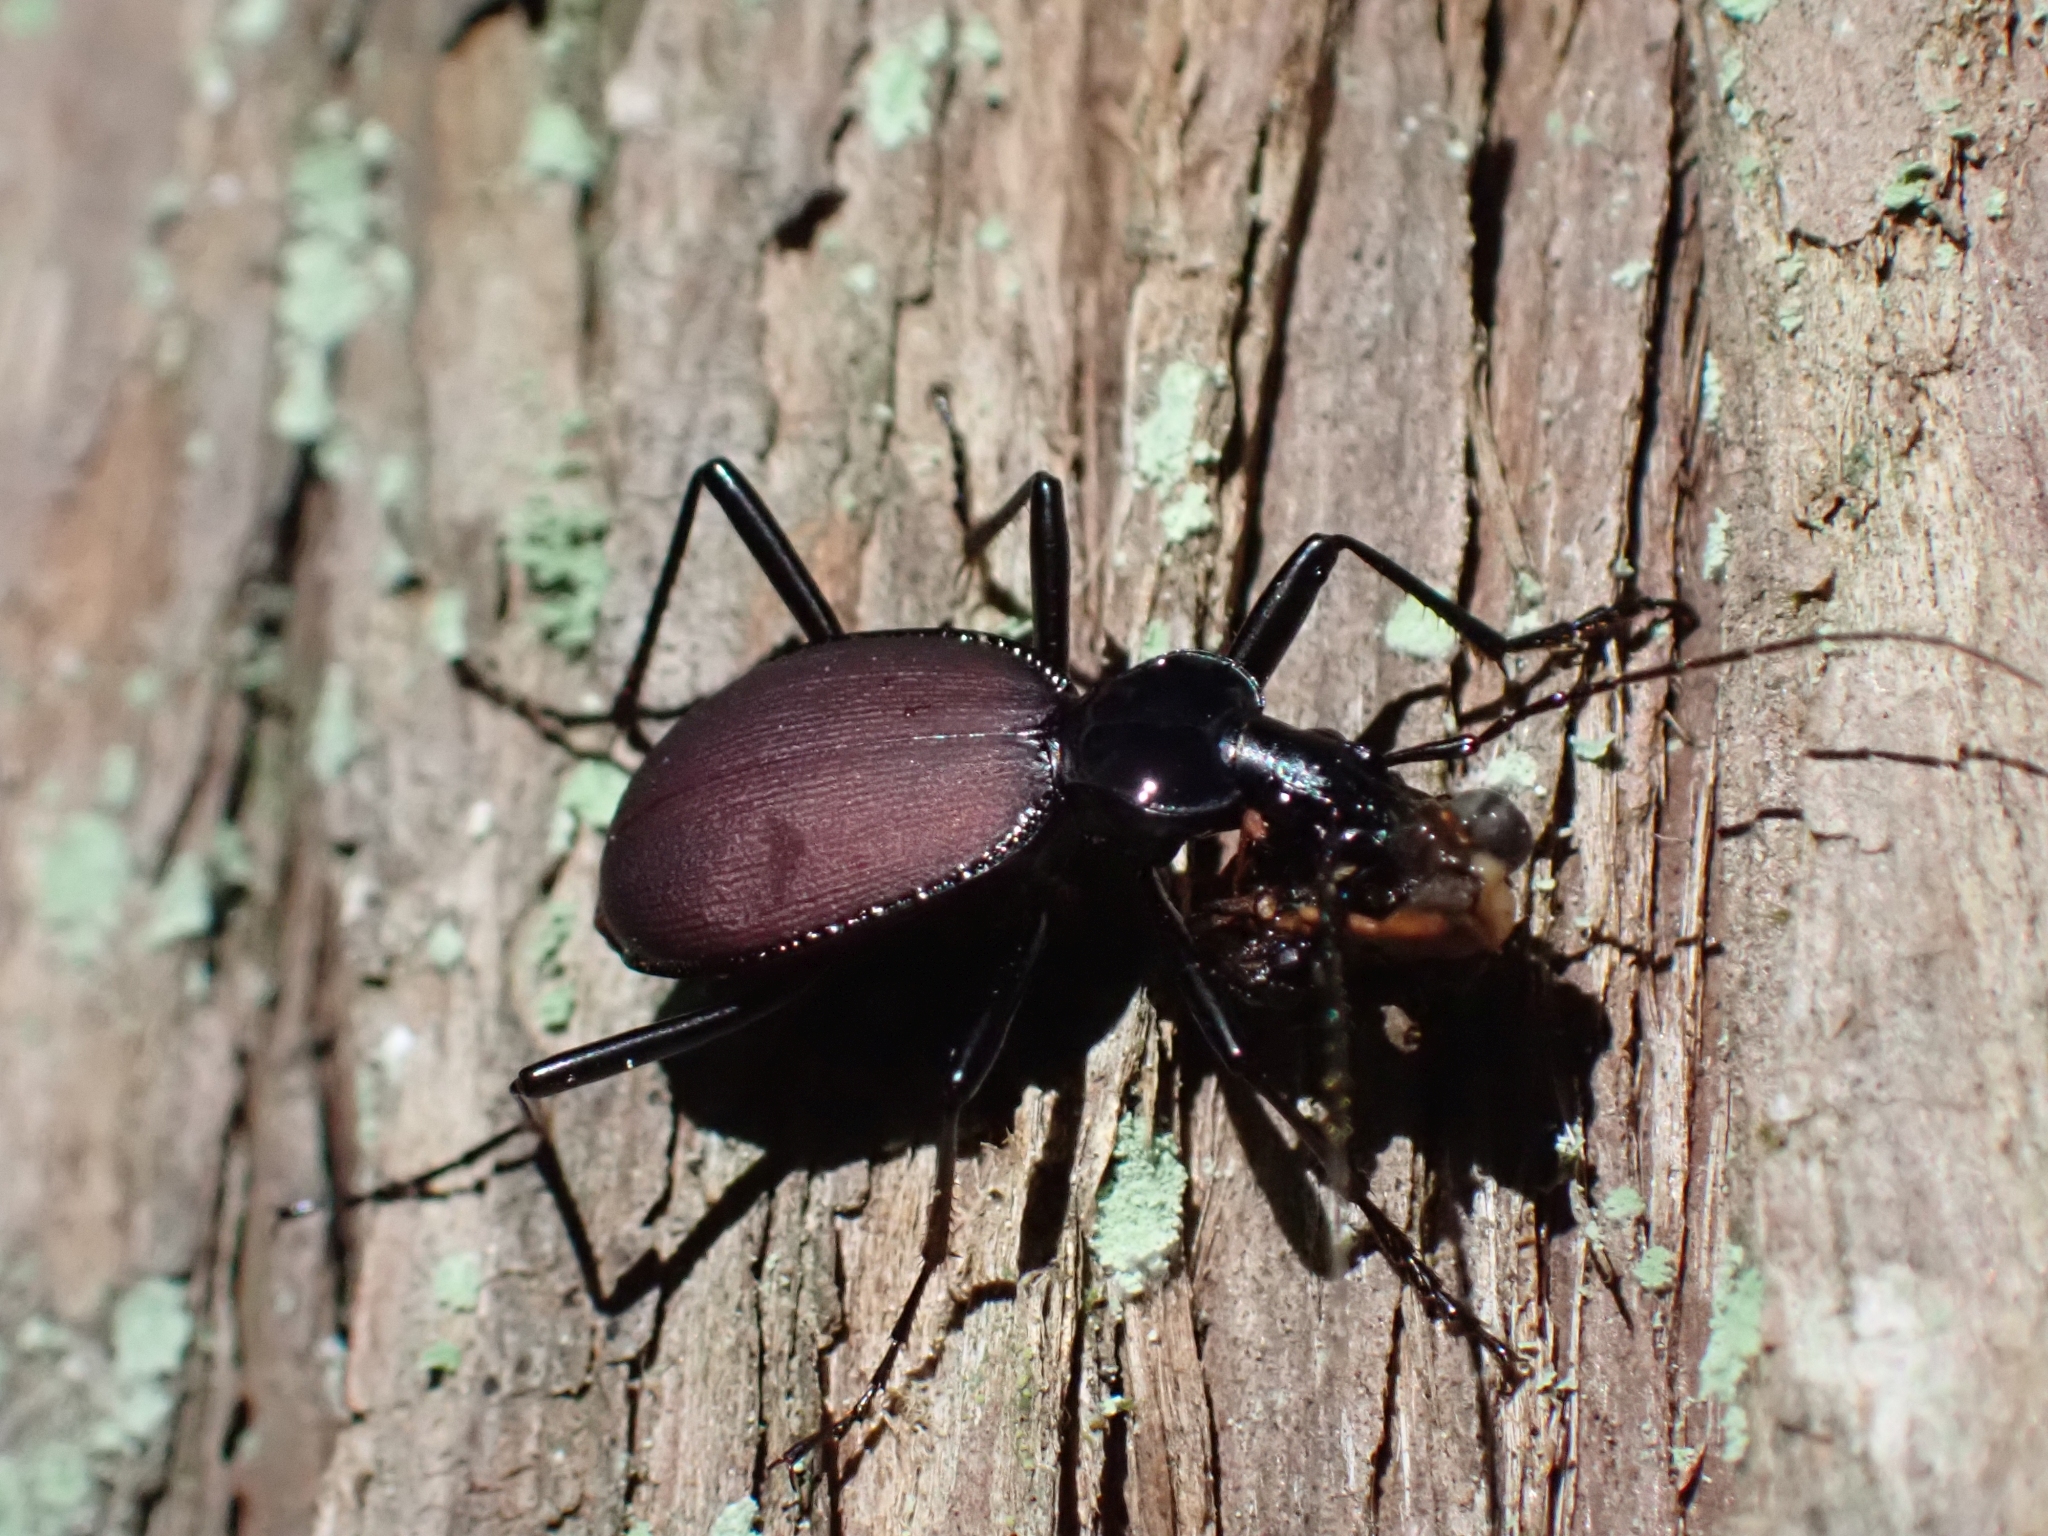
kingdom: Animalia
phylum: Arthropoda
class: Insecta
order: Coleoptera
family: Carabidae
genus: Scaphinotus
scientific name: Scaphinotus angusticollis
